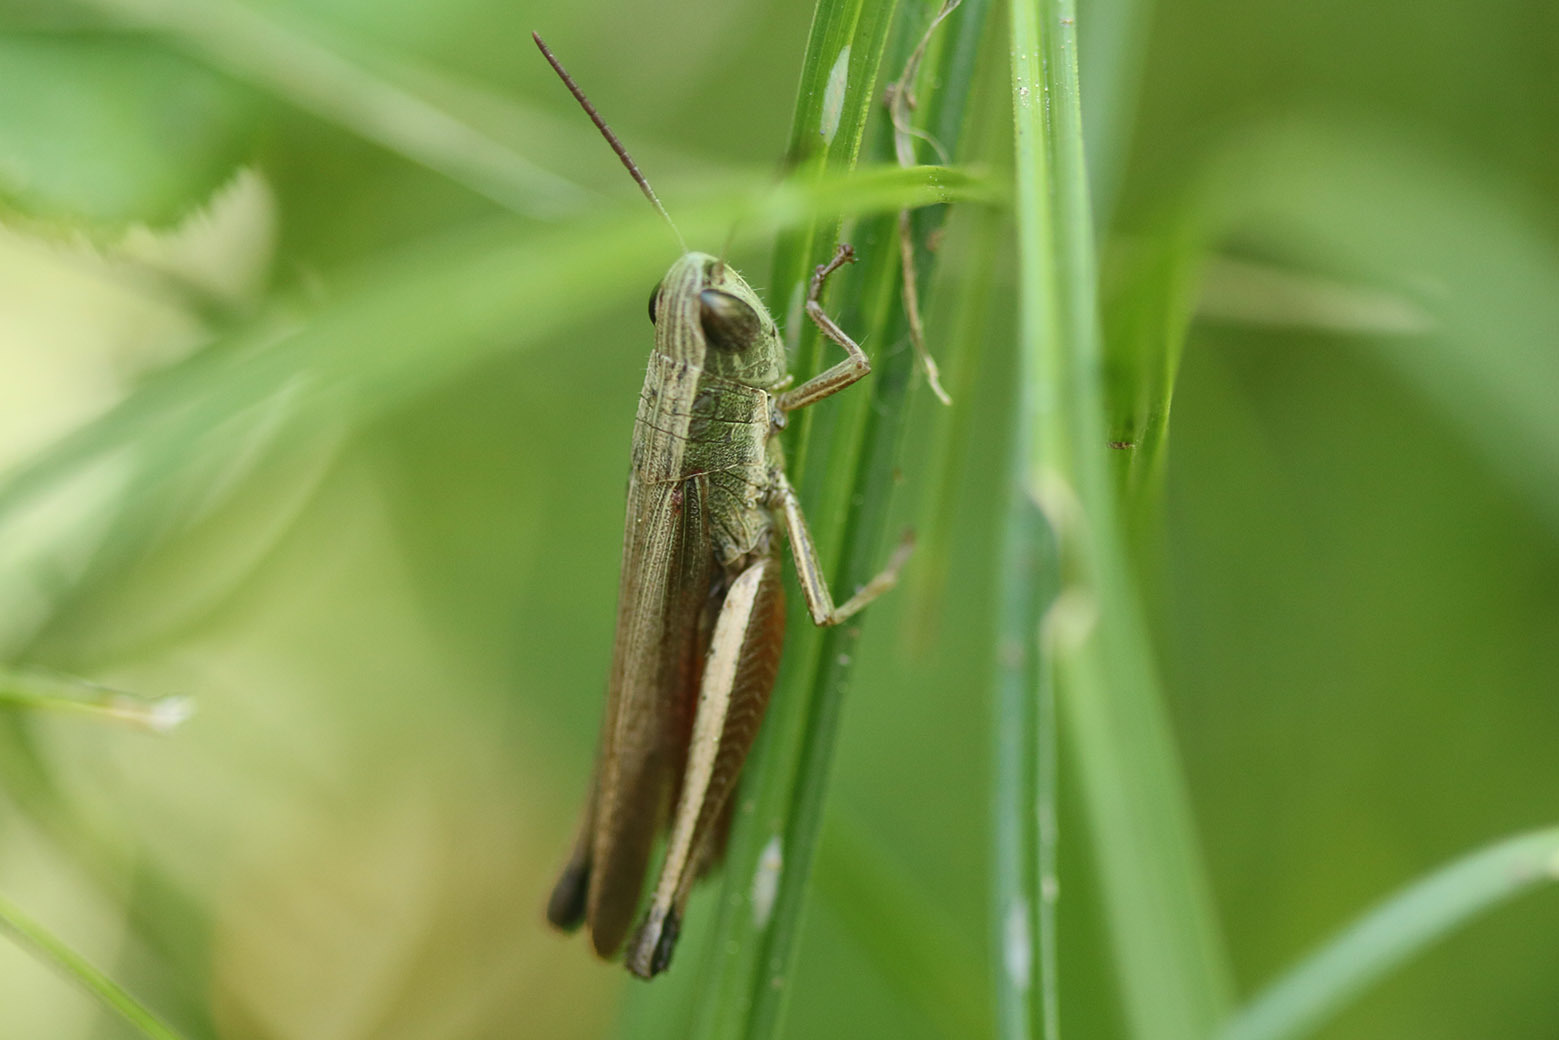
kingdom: Animalia
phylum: Arthropoda
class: Insecta
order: Orthoptera
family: Acrididae
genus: Amblytropidia
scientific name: Amblytropidia australis
